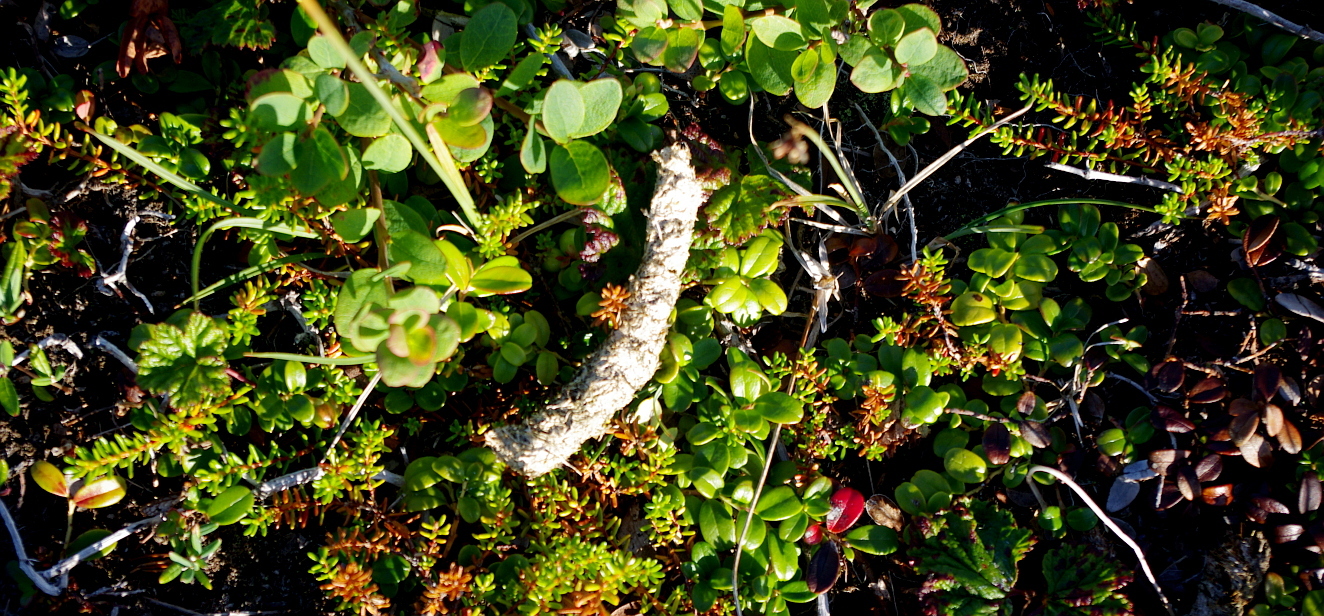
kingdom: Animalia
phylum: Chordata
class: Aves
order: Galliformes
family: Phasianidae
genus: Lagopus
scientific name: Lagopus lagopus
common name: Willow ptarmigan
